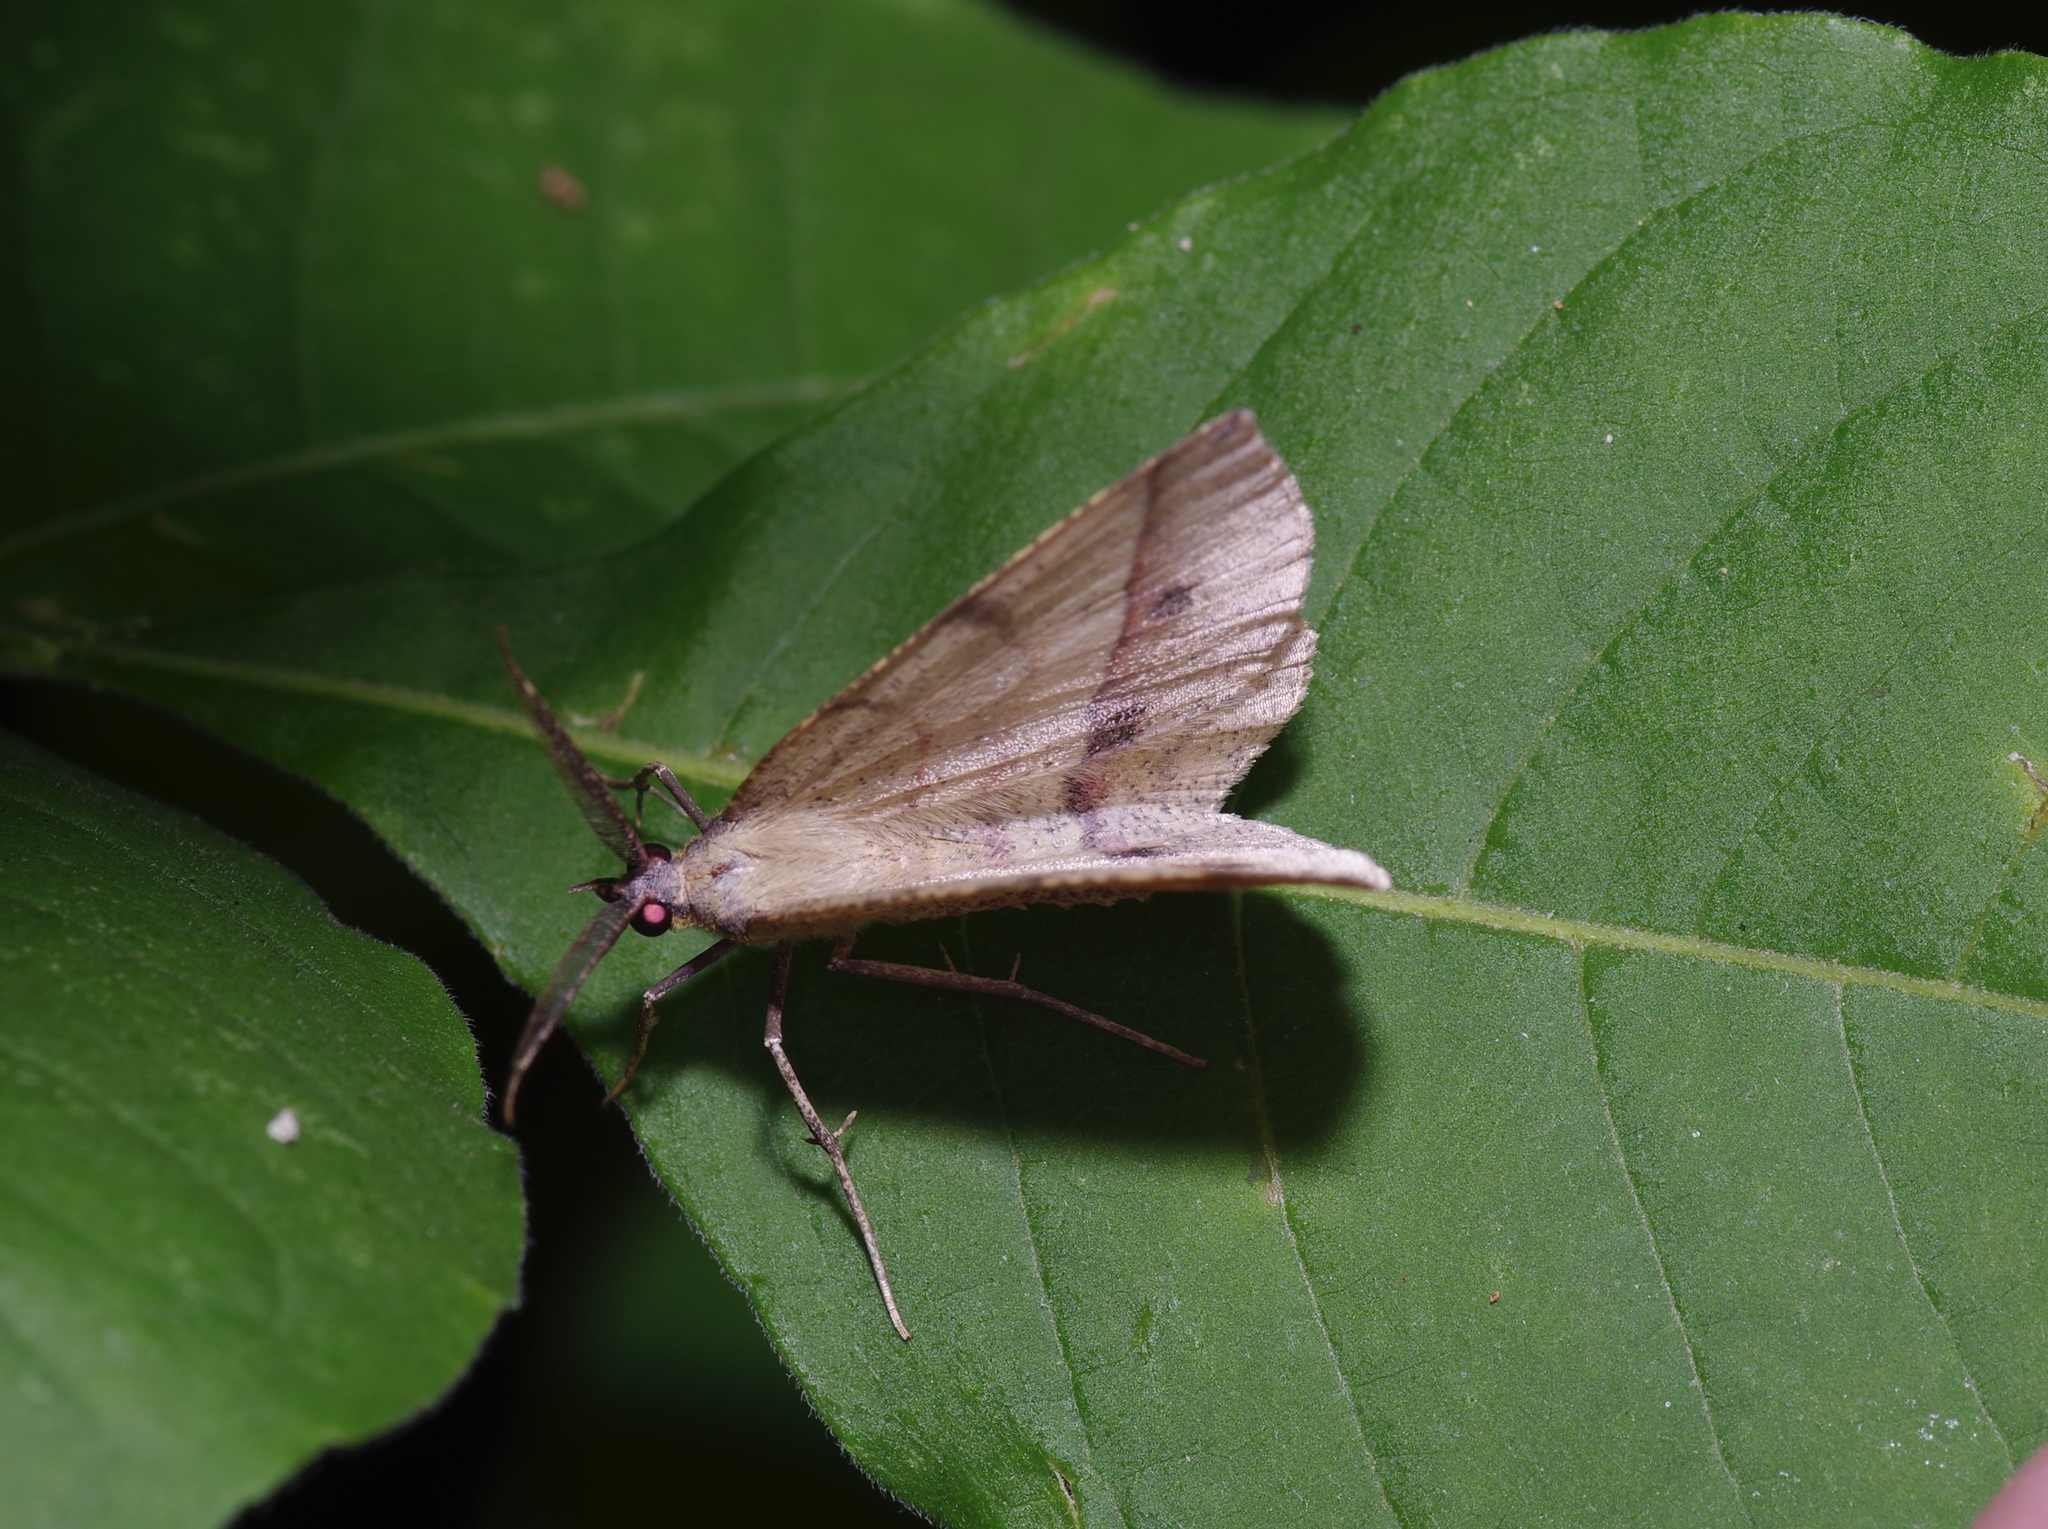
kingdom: Animalia
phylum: Arthropoda
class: Insecta
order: Lepidoptera
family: Geometridae
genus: Erastria
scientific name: Erastria cruentaria
